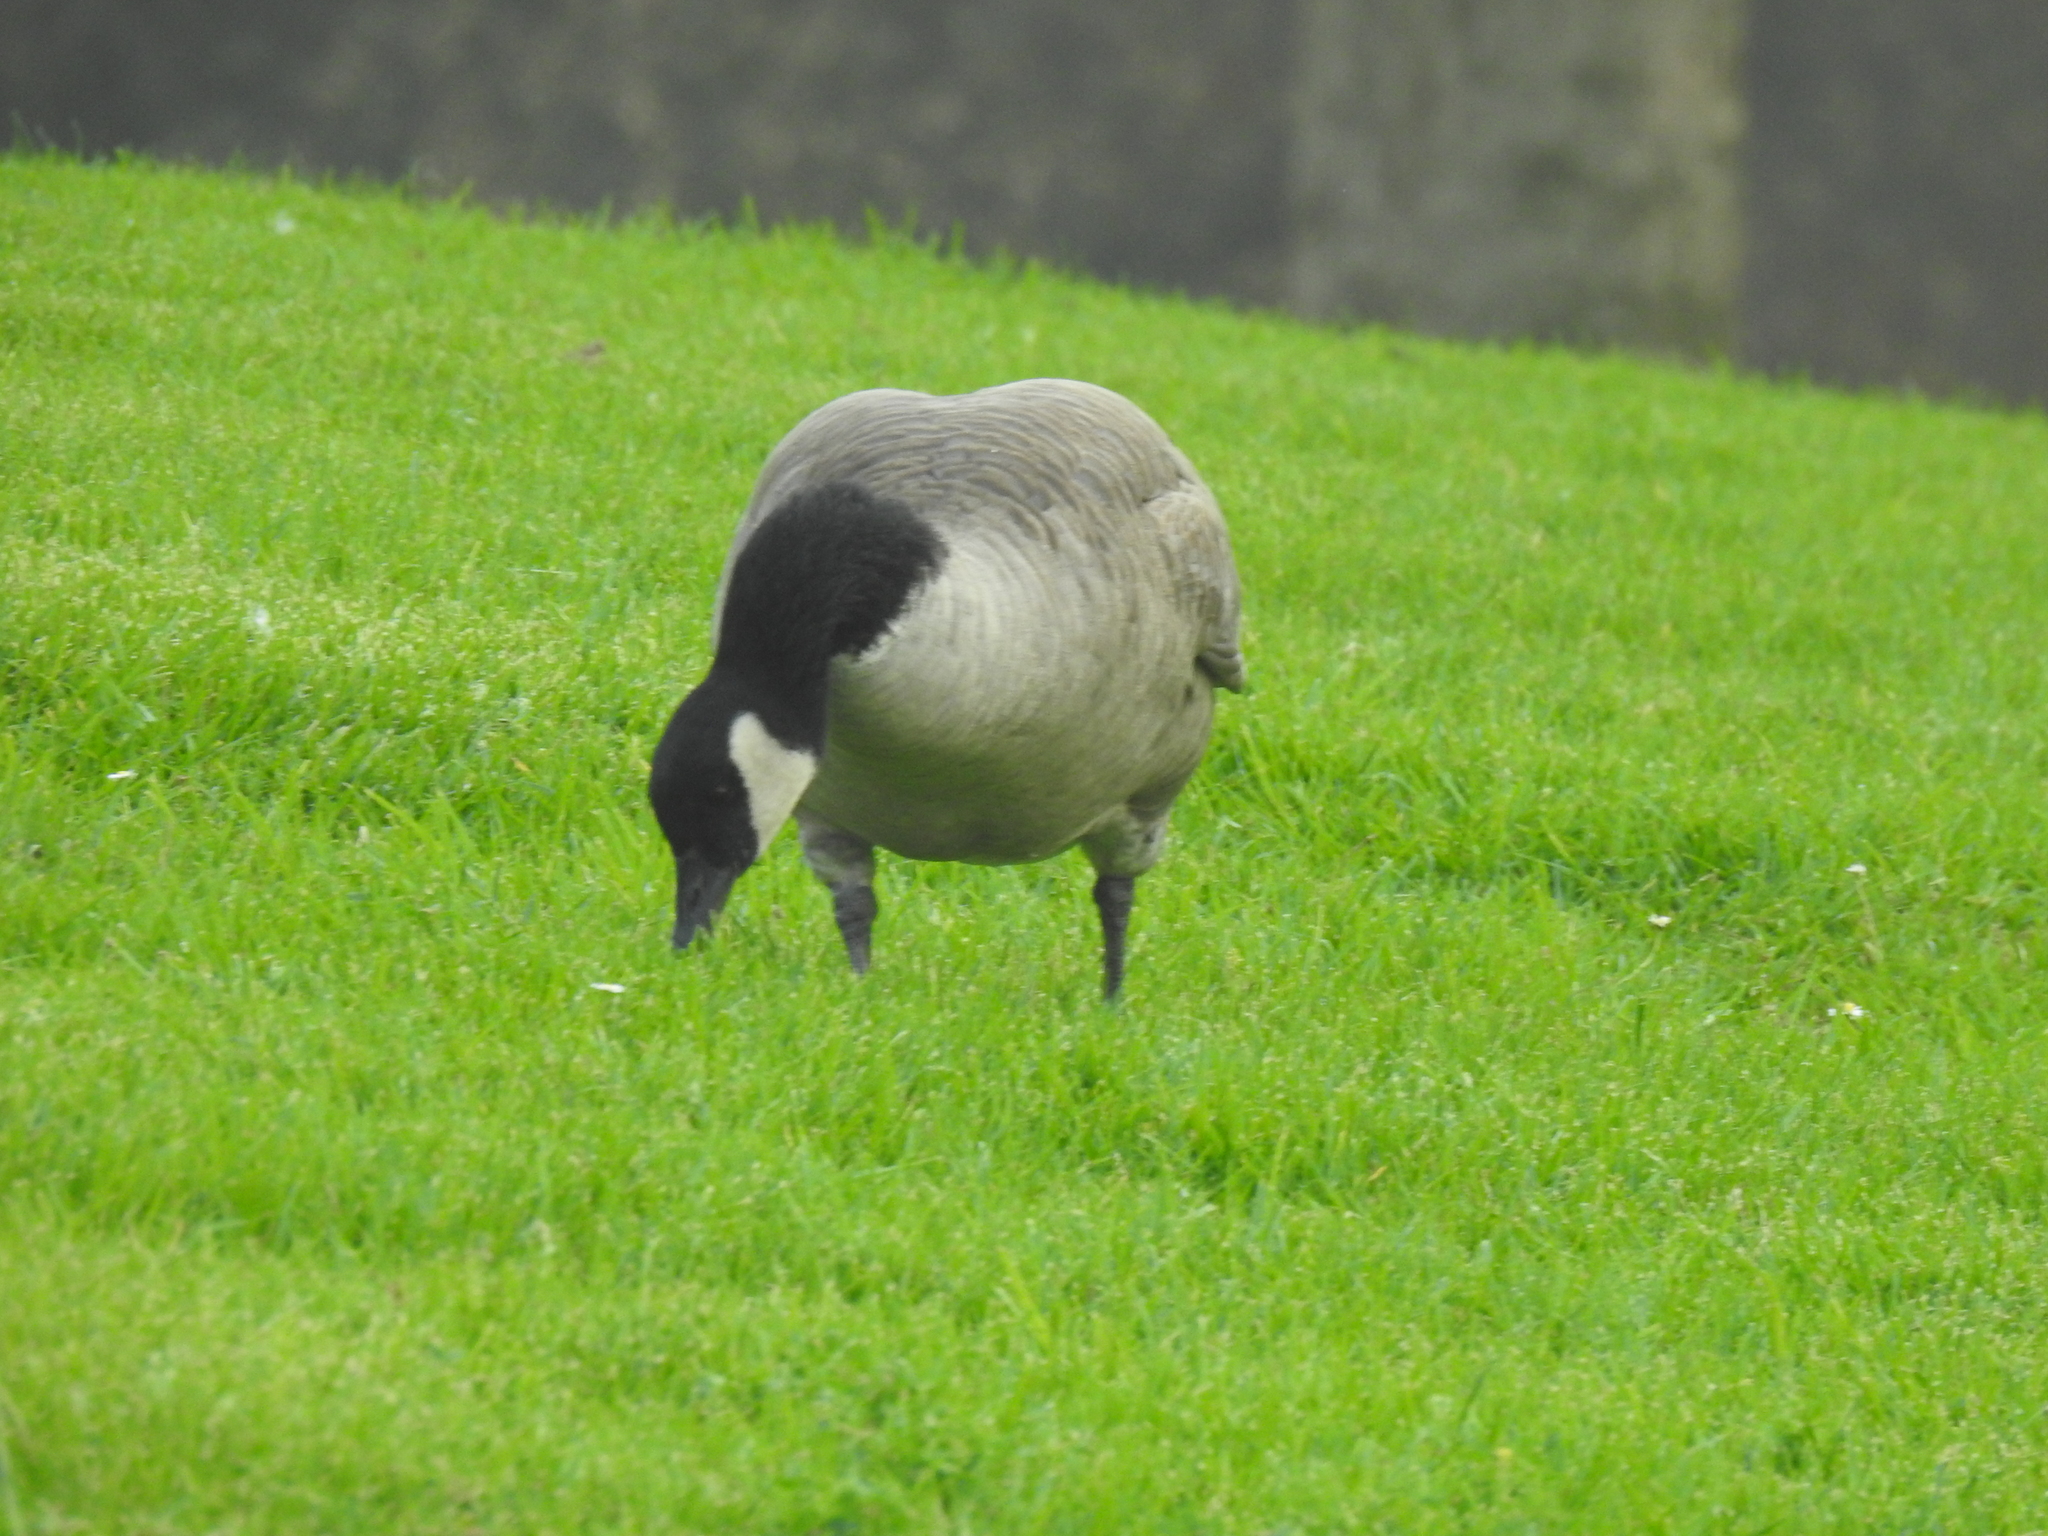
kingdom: Animalia
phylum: Chordata
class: Aves
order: Anseriformes
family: Anatidae
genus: Branta
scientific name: Branta canadensis
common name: Canada goose
